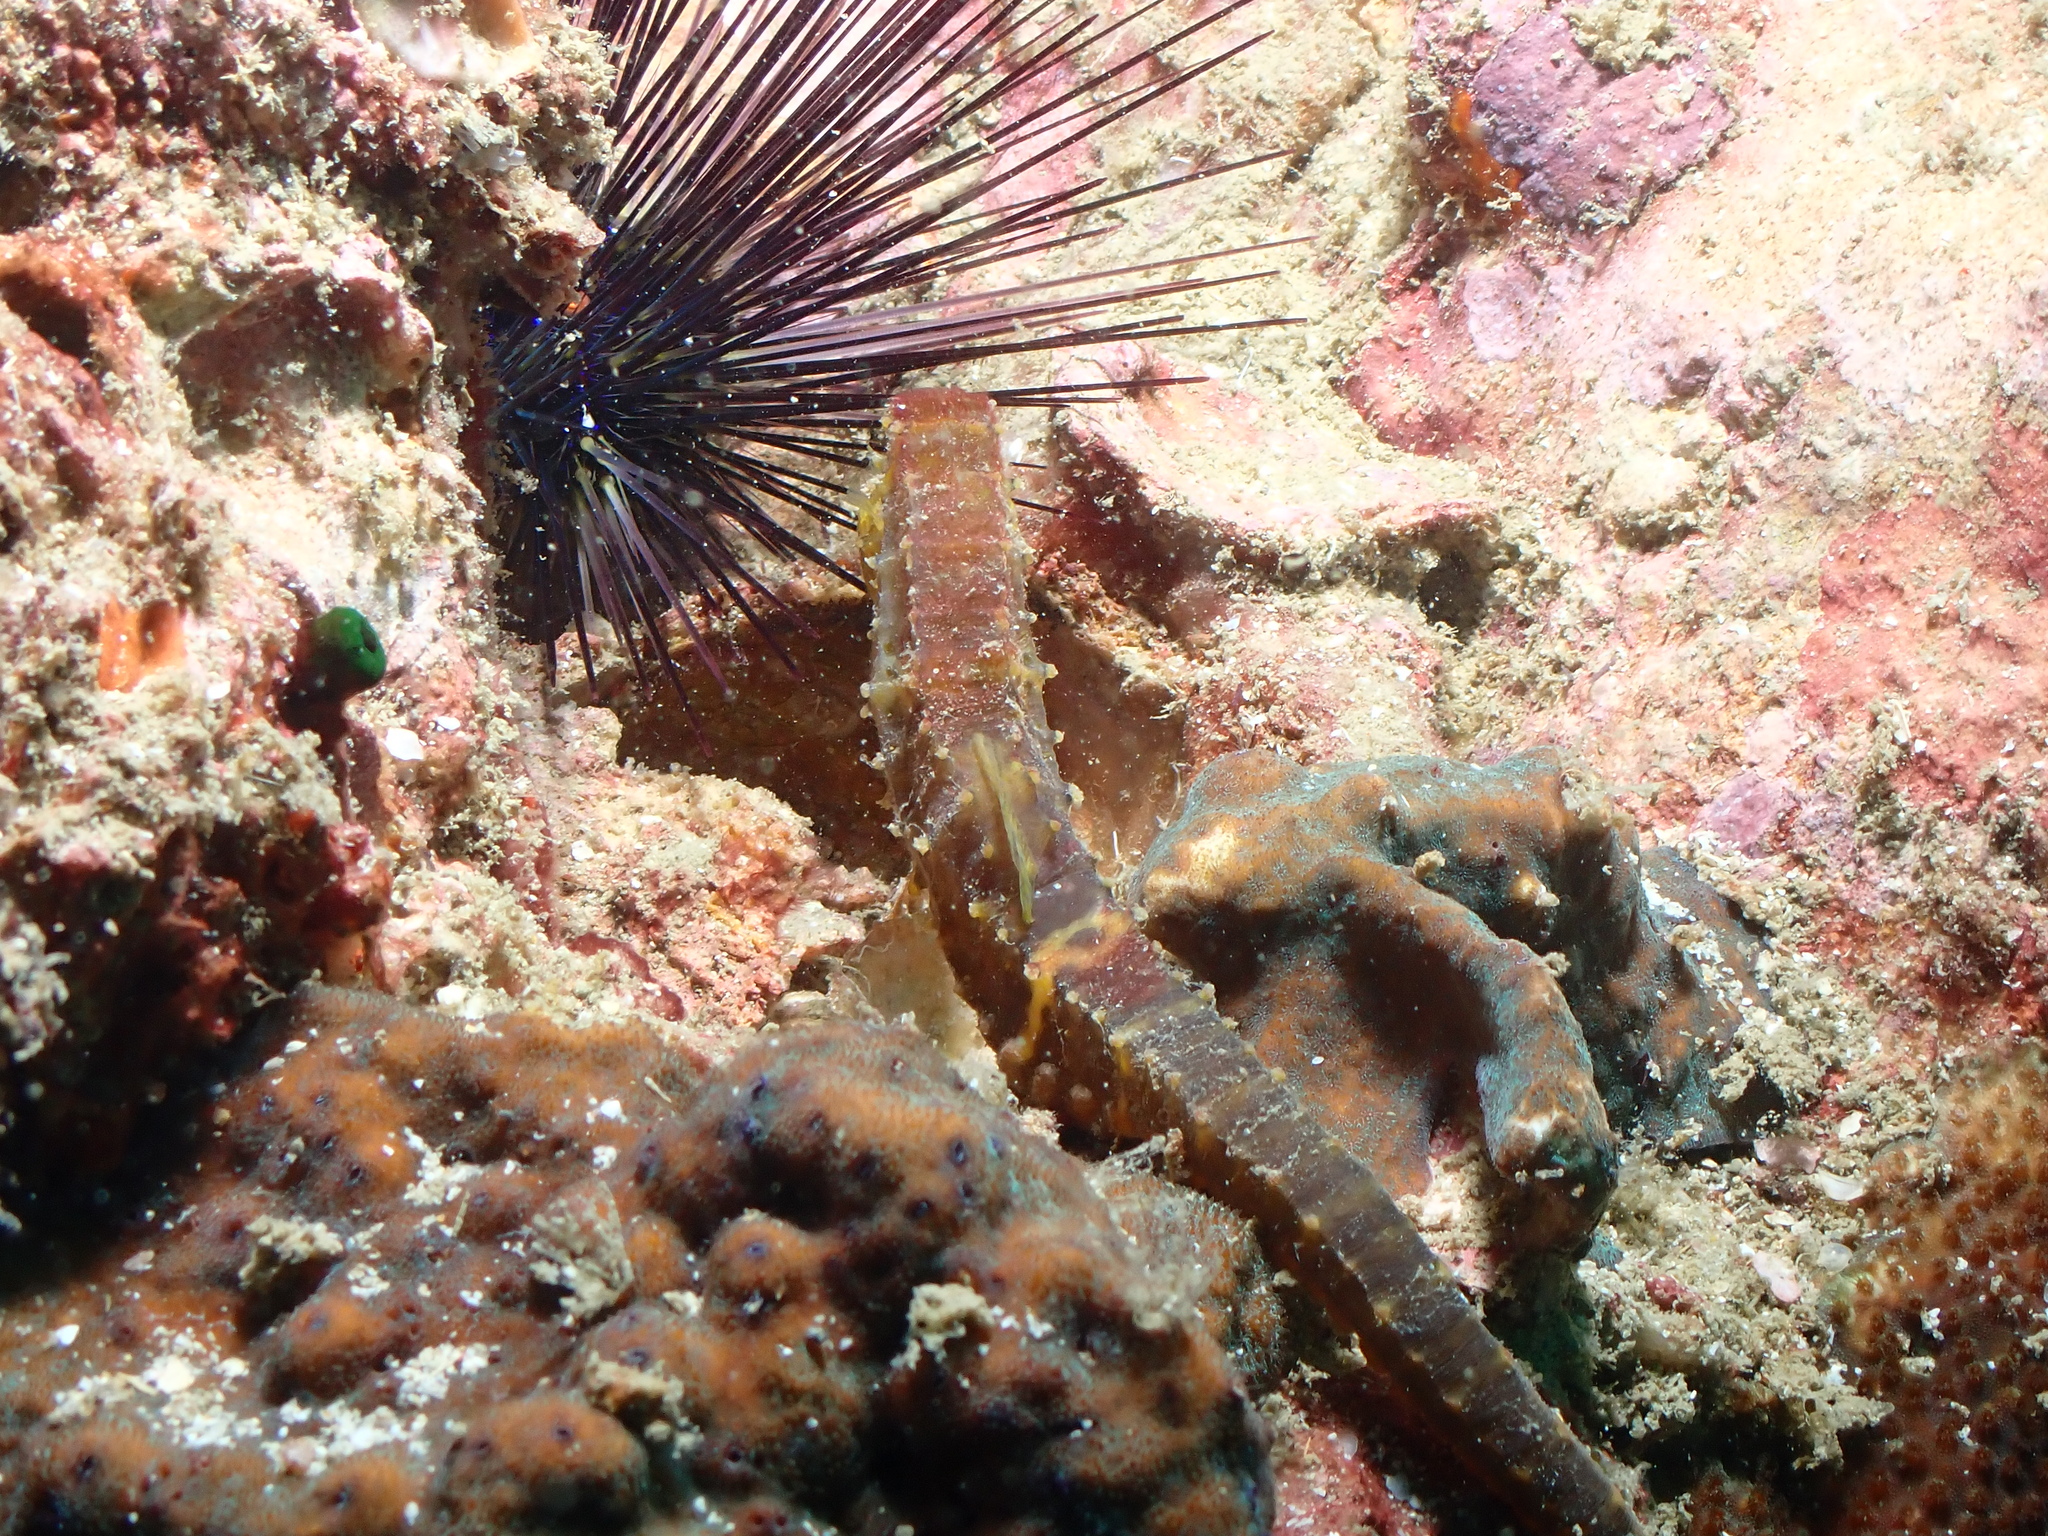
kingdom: Animalia
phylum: Chordata
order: Syngnathiformes
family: Syngnathidae
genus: Hippocampus
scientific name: Hippocampus comes
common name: Tiger tail seahorse
